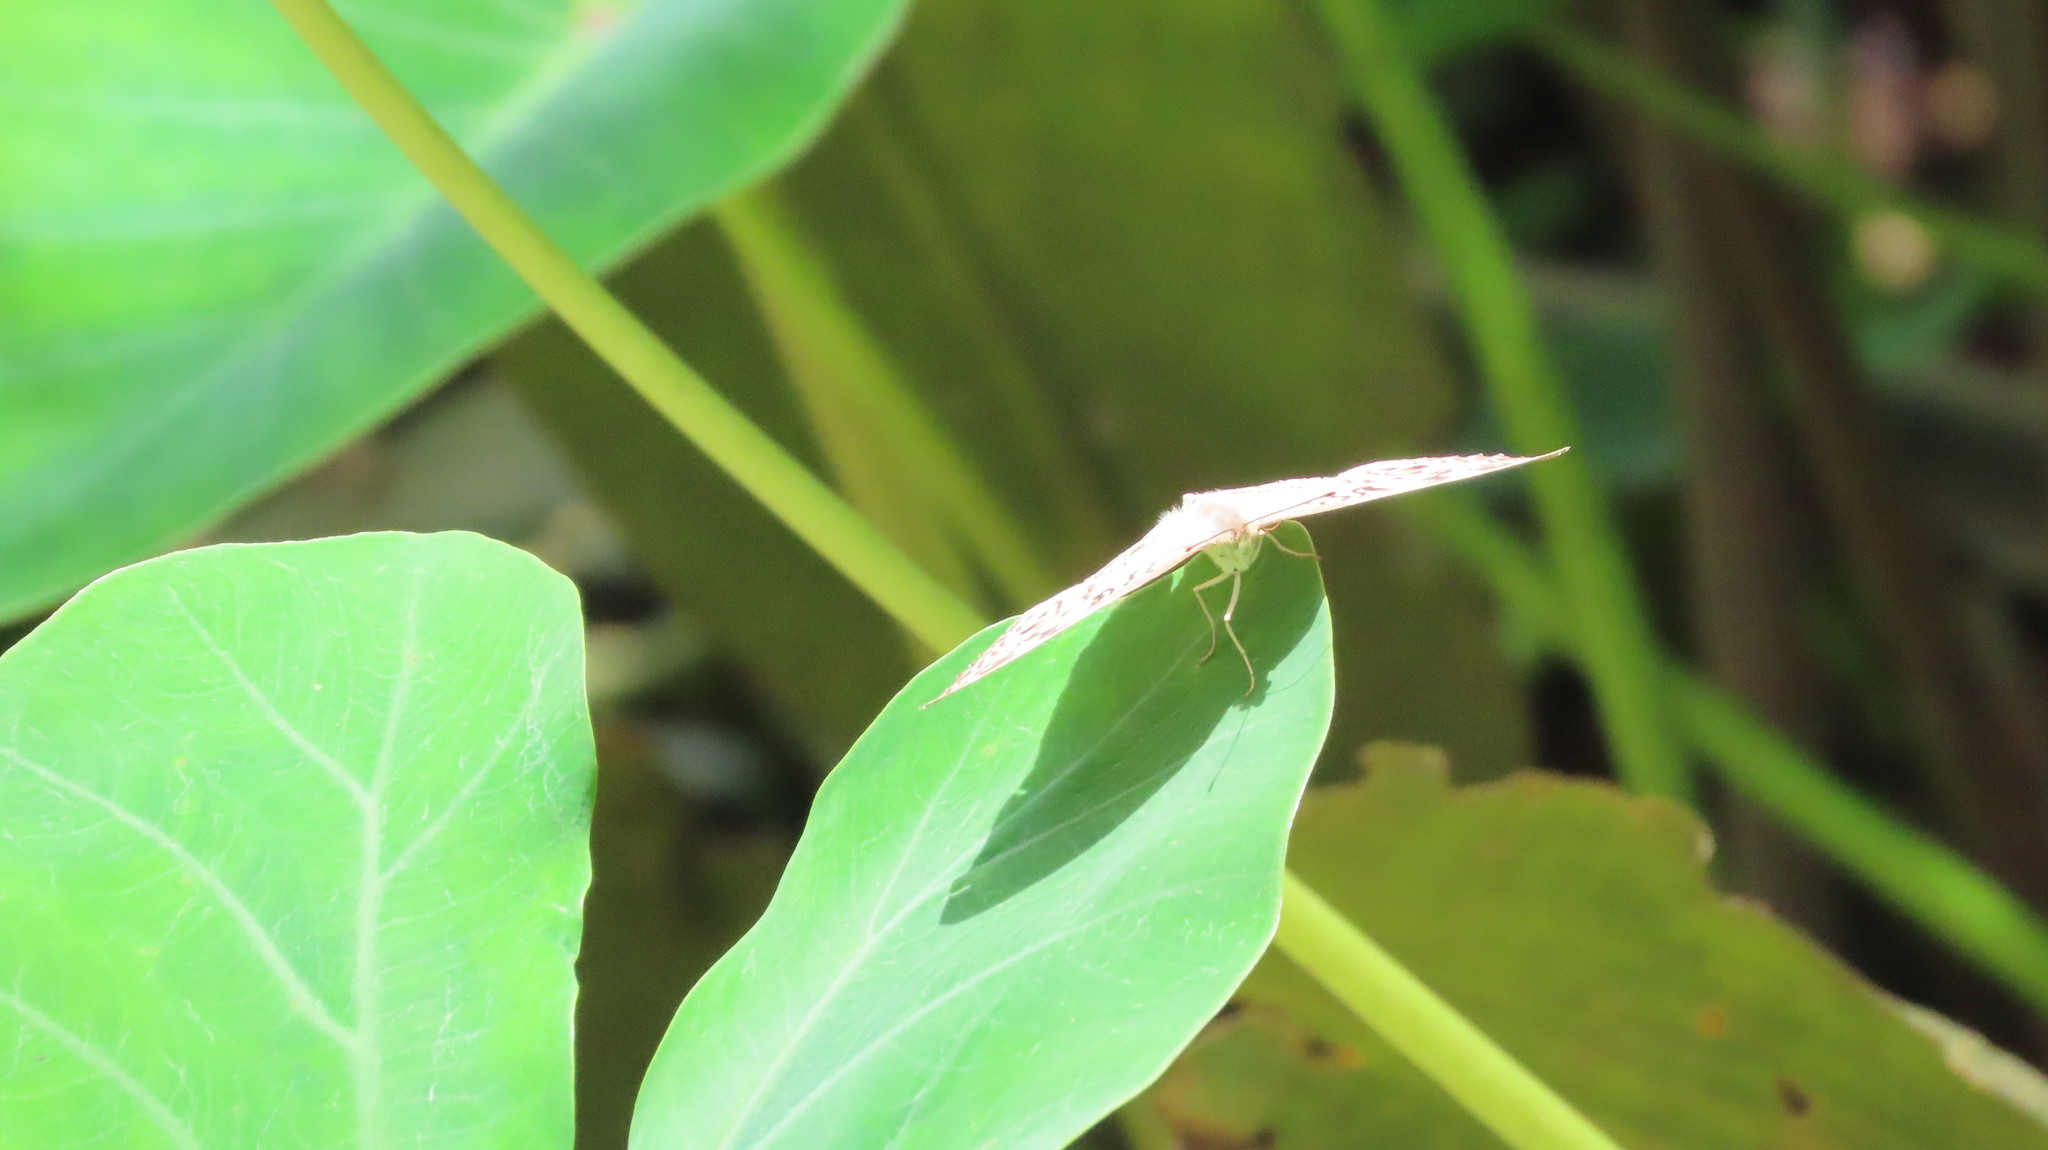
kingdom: Animalia
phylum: Arthropoda
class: Insecta
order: Lepidoptera
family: Nymphalidae
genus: Junonia
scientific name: Junonia atlites
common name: Grey pansy
